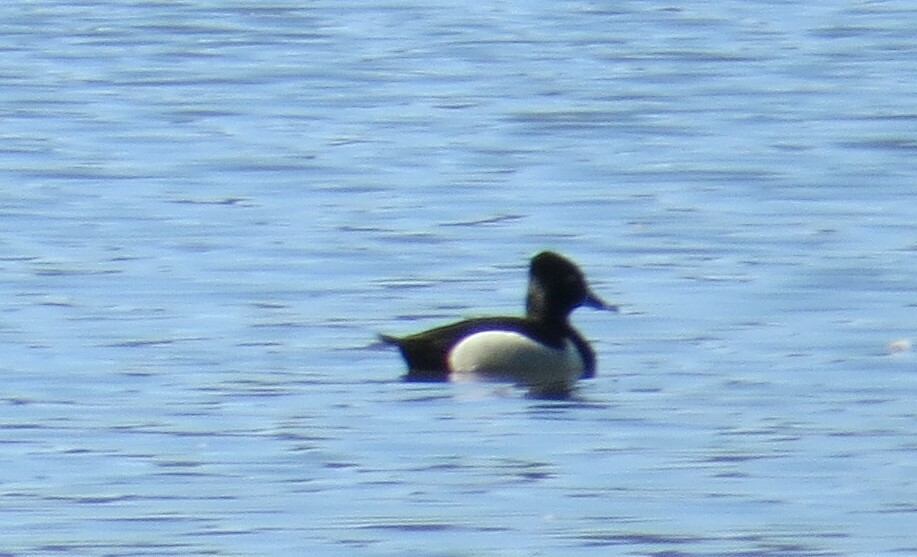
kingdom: Animalia
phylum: Chordata
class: Aves
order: Anseriformes
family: Anatidae
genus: Aythya
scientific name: Aythya collaris
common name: Ring-necked duck
